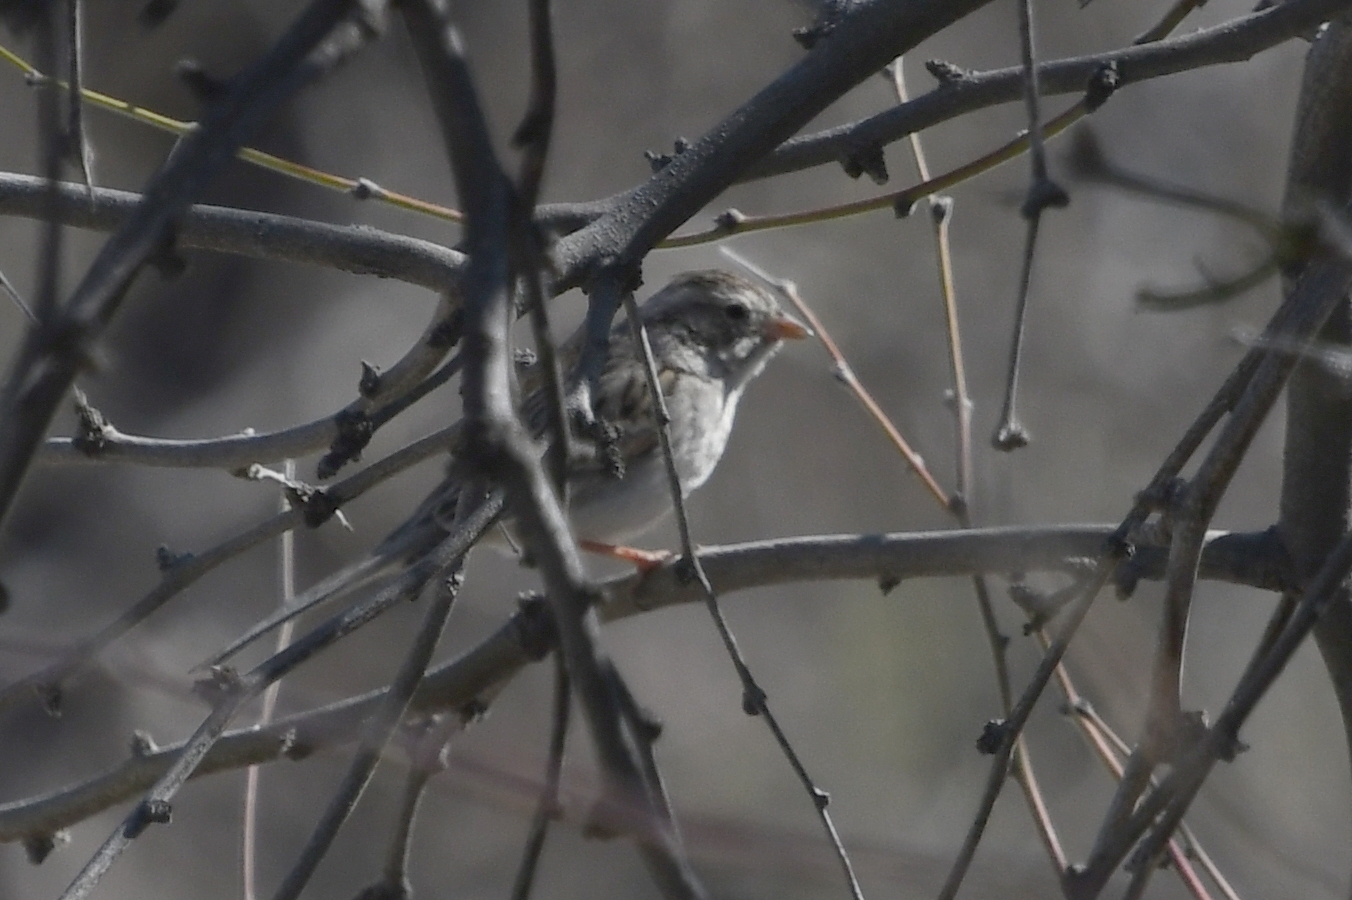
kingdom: Animalia
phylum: Chordata
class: Aves
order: Passeriformes
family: Passerellidae
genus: Spizella
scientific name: Spizella breweri
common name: Brewer's sparrow
